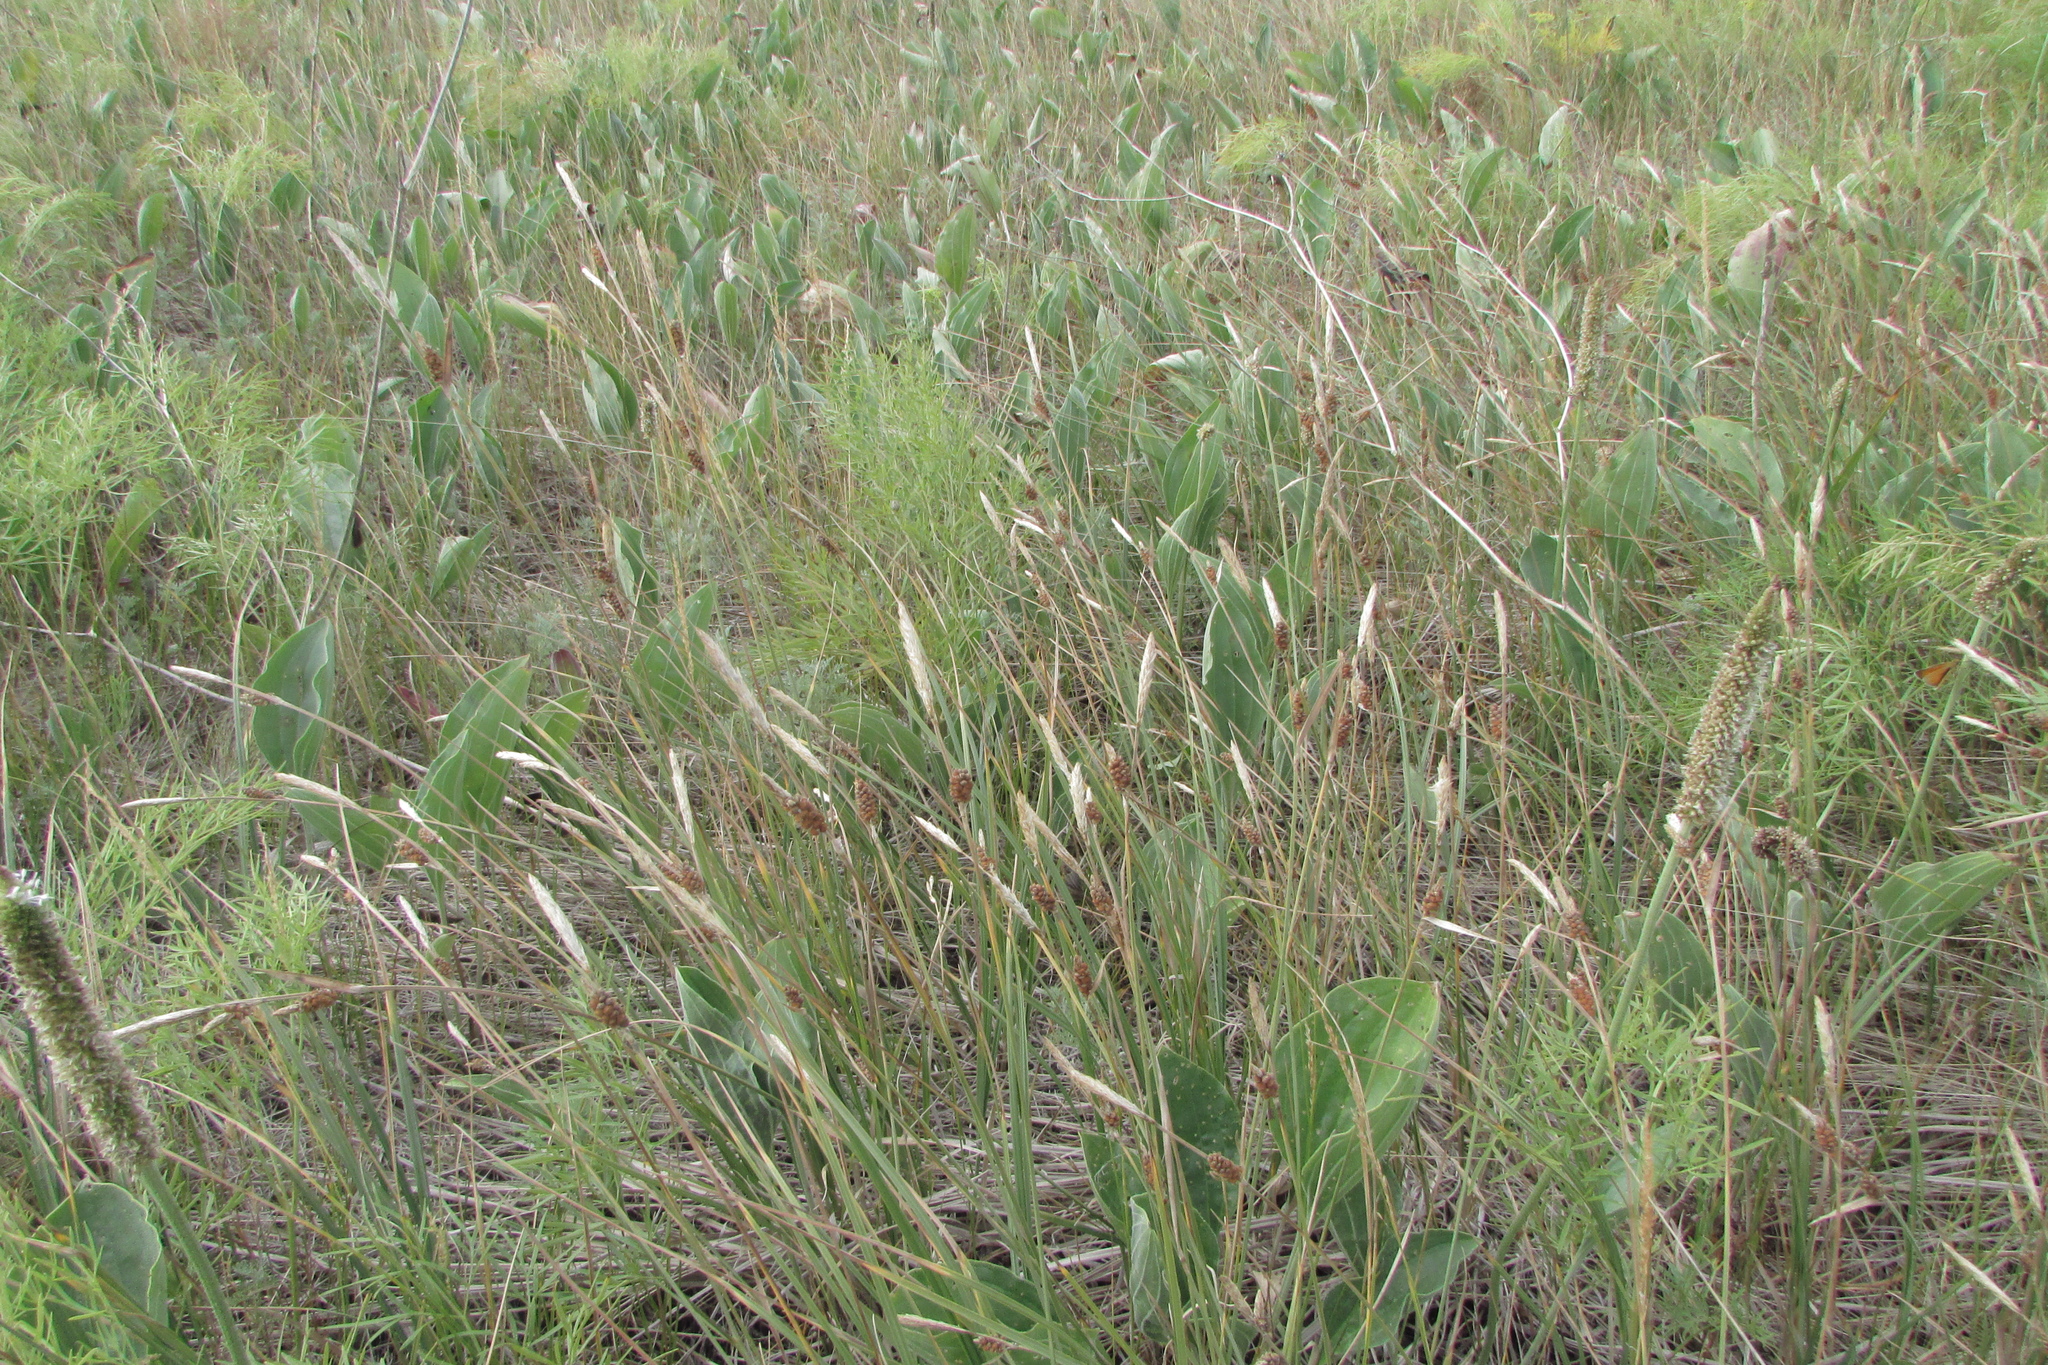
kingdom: Plantae
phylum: Tracheophyta
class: Liliopsida
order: Poales
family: Cyperaceae
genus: Carex
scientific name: Carex tomentosa
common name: Downy-fruited sedge
